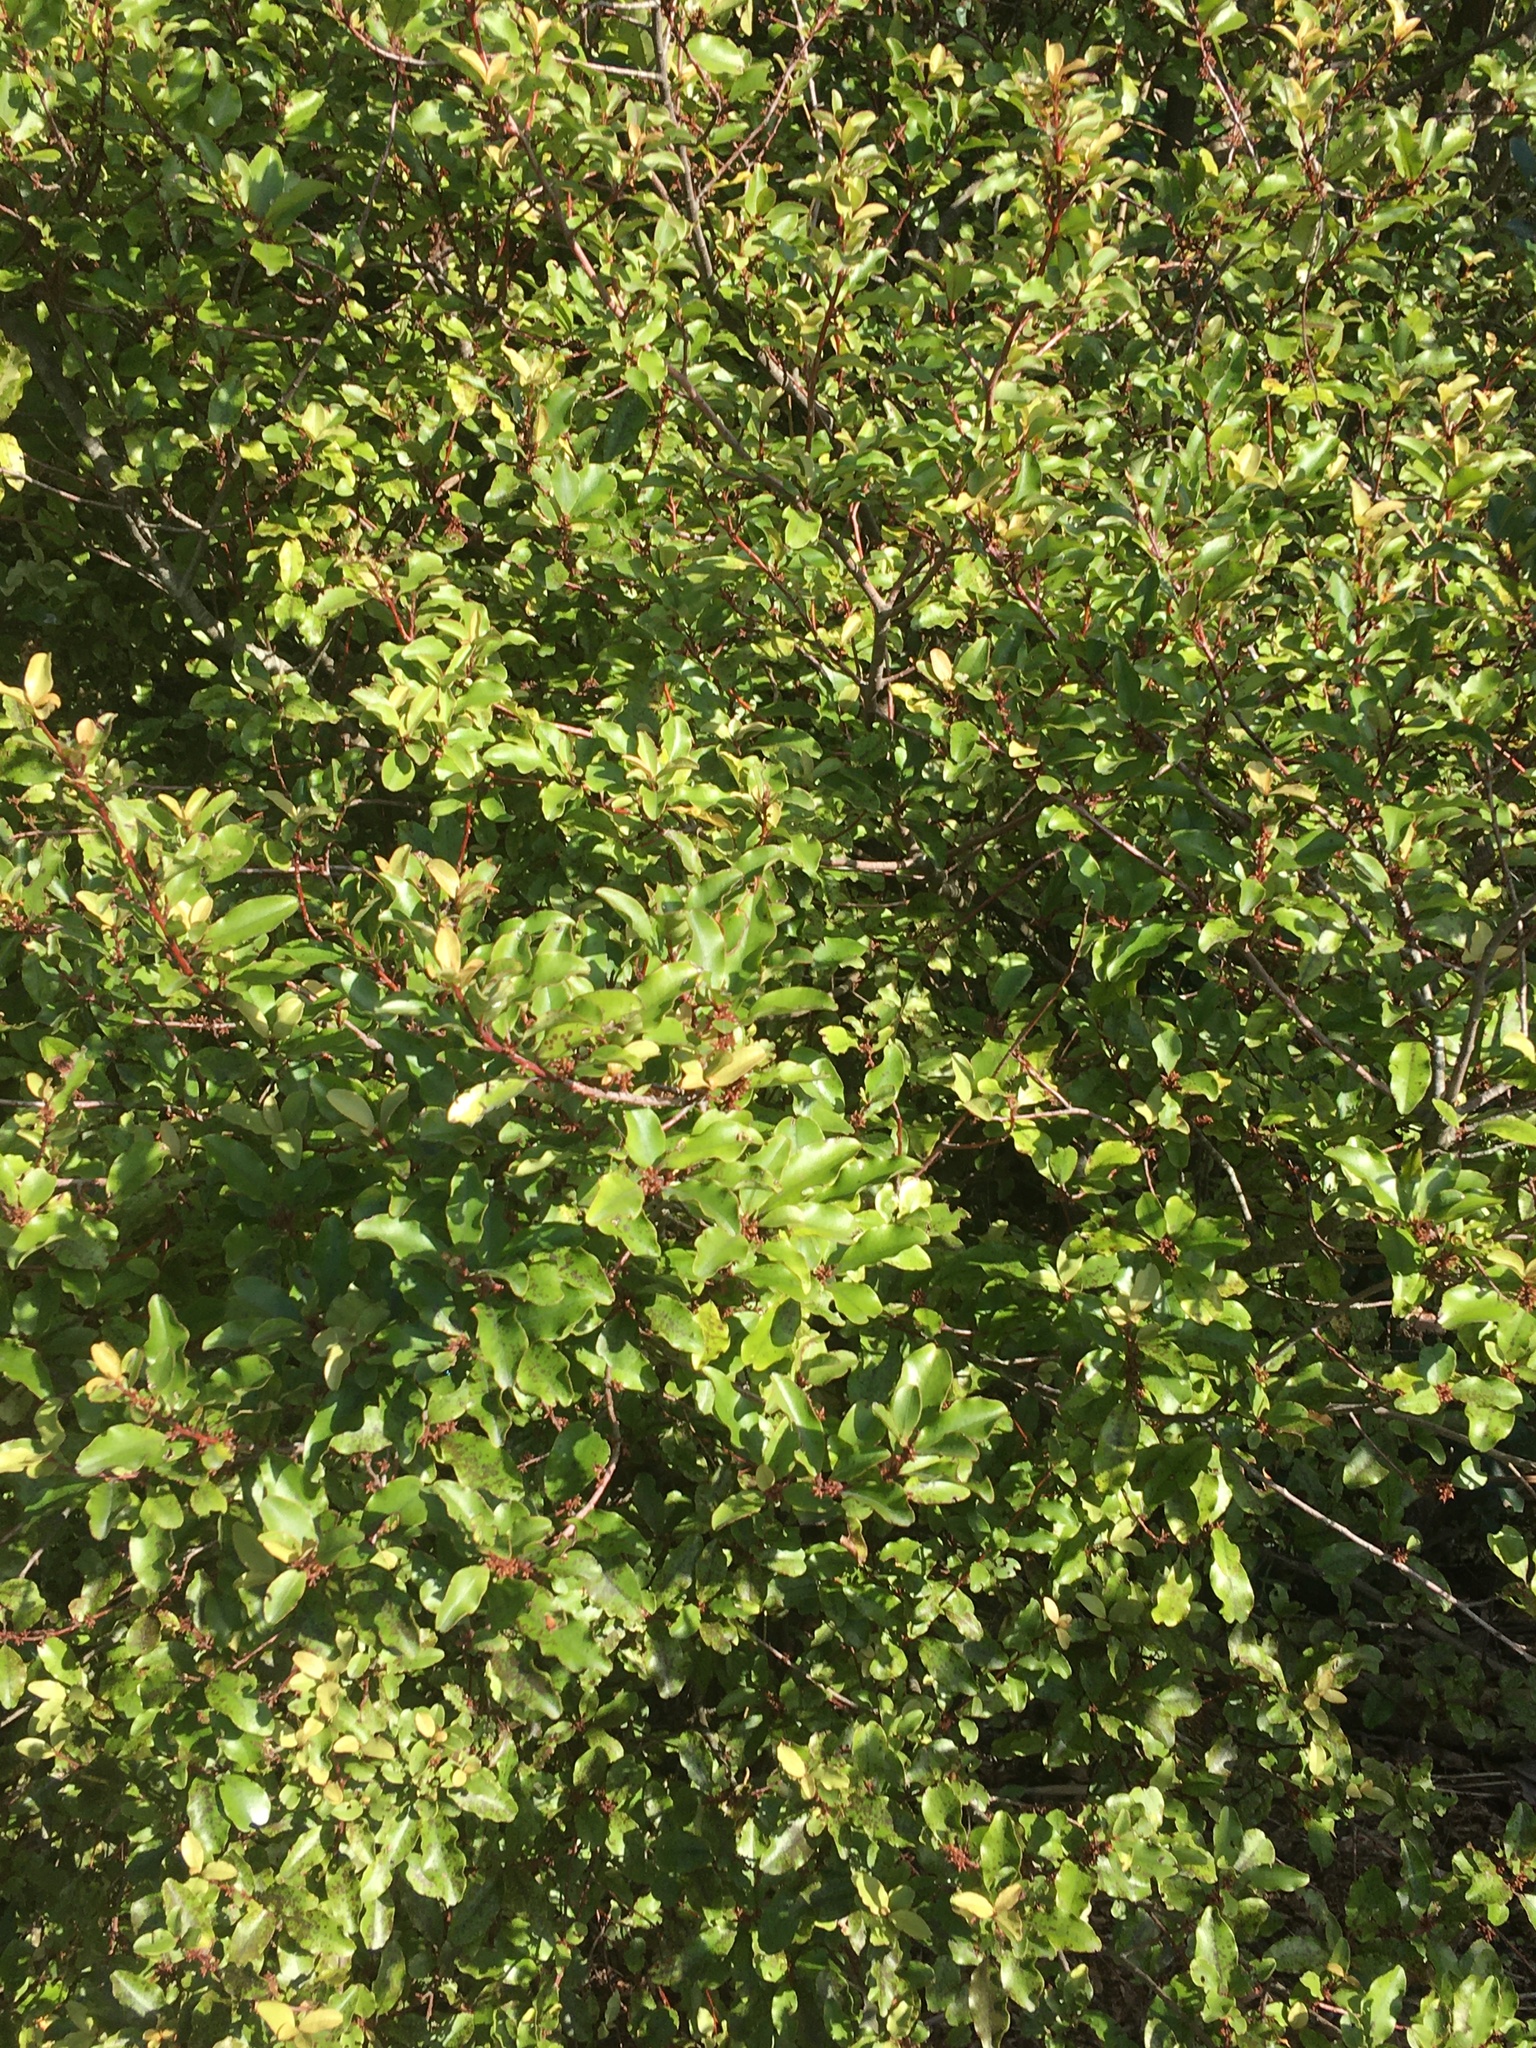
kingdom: Plantae
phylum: Tracheophyta
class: Magnoliopsida
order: Ericales
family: Primulaceae
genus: Myrsine
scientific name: Myrsine australis
